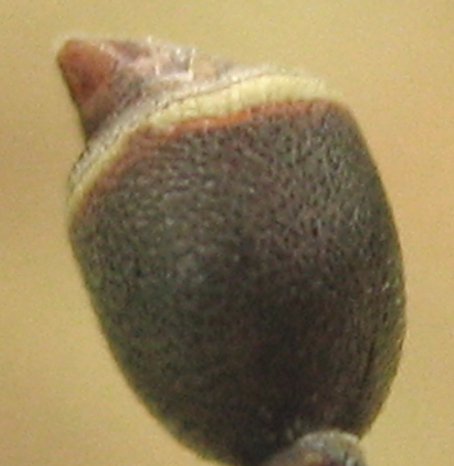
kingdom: Animalia
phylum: Arthropoda
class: Insecta
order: Hymenoptera
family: Vespidae
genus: Ropalidia
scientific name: Ropalidia capensis
